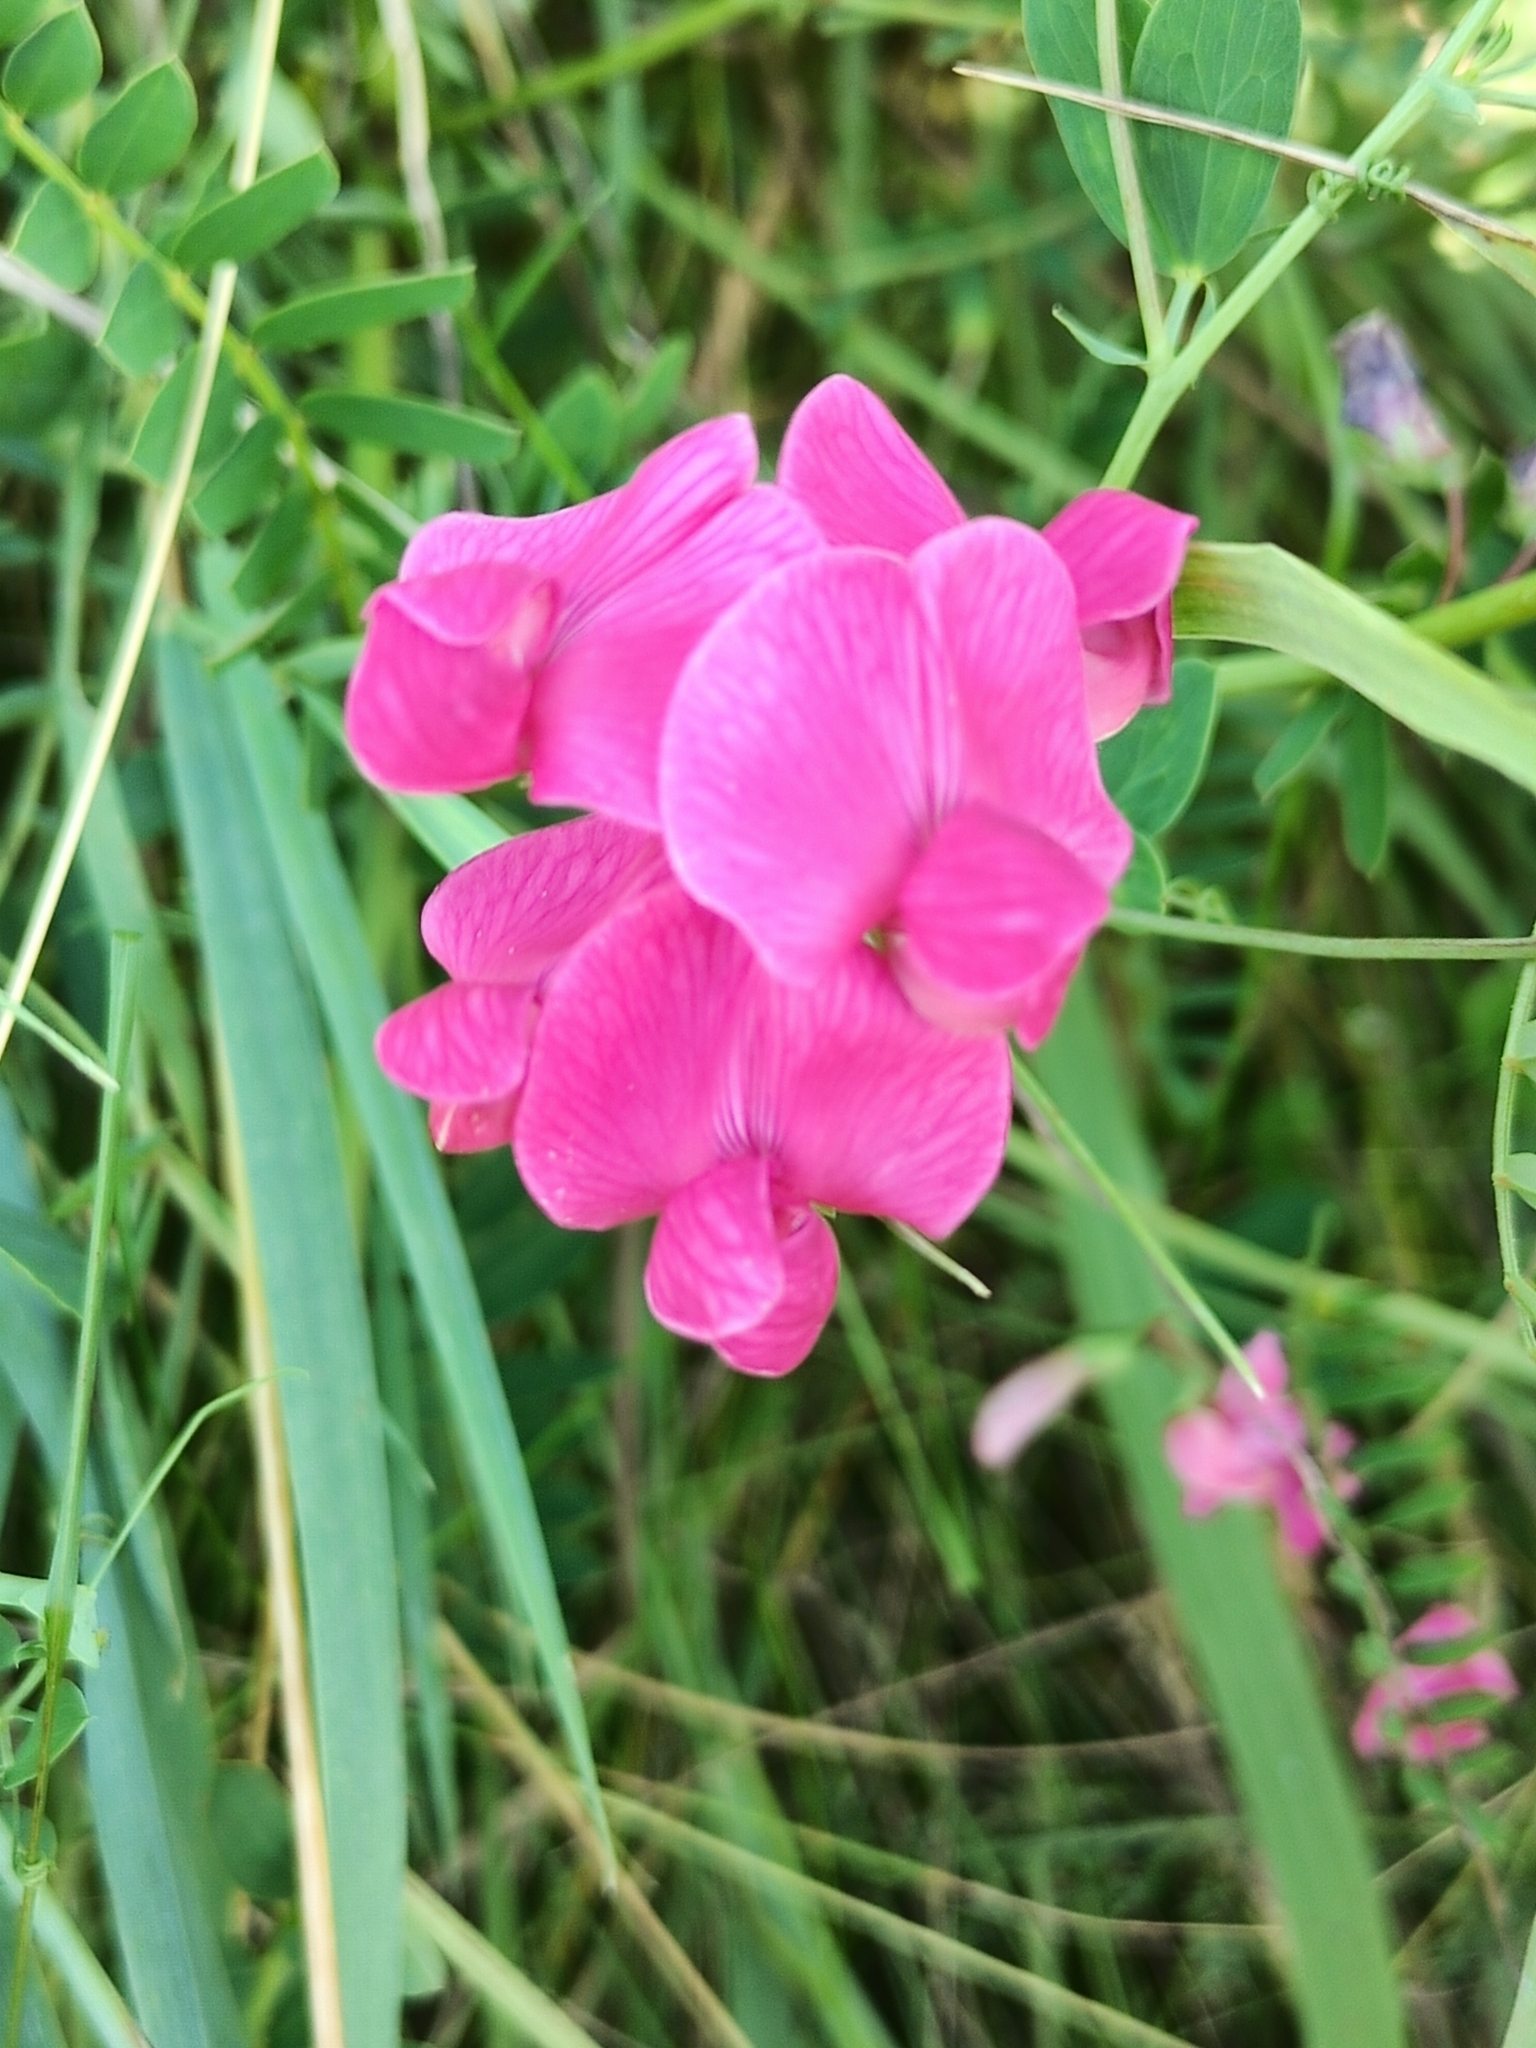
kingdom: Plantae
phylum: Tracheophyta
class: Magnoliopsida
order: Fabales
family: Fabaceae
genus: Lathyrus
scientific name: Lathyrus tuberosus
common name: Tuberous pea
